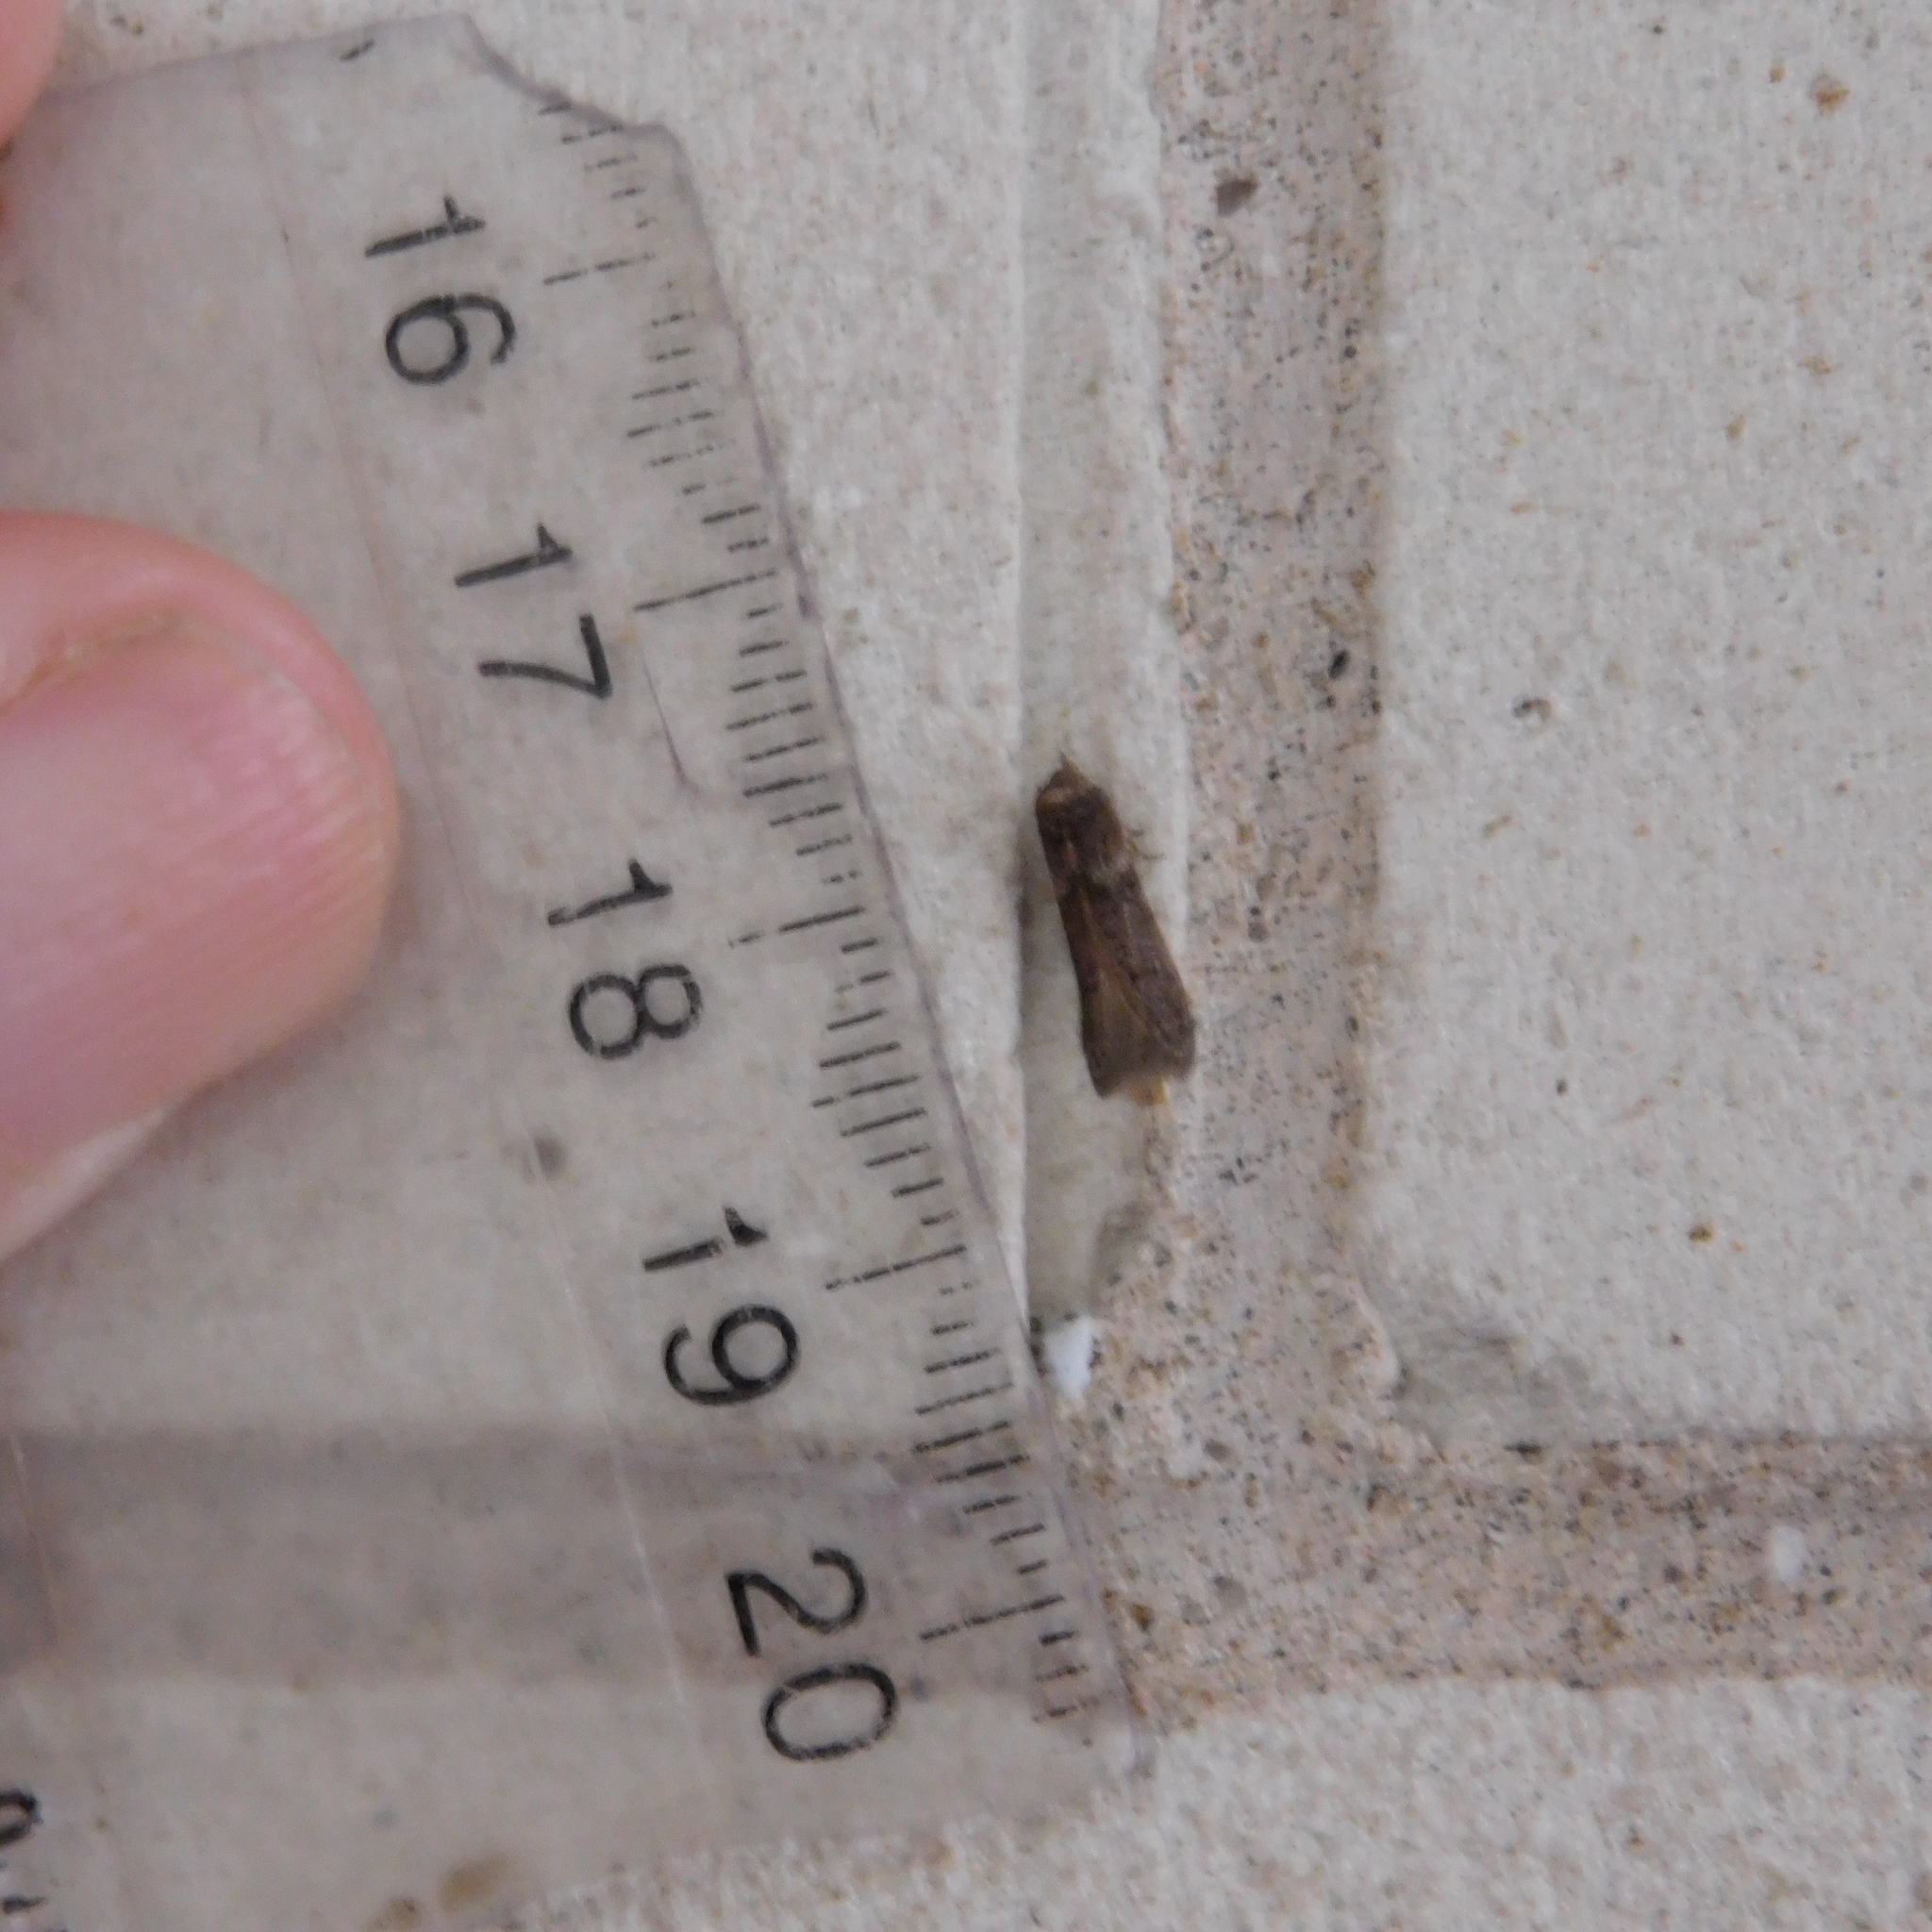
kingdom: Animalia
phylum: Arthropoda
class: Insecta
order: Lepidoptera
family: Blastobasidae
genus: Blastobasis
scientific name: Blastobasis tarda
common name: Blastobasid moth
